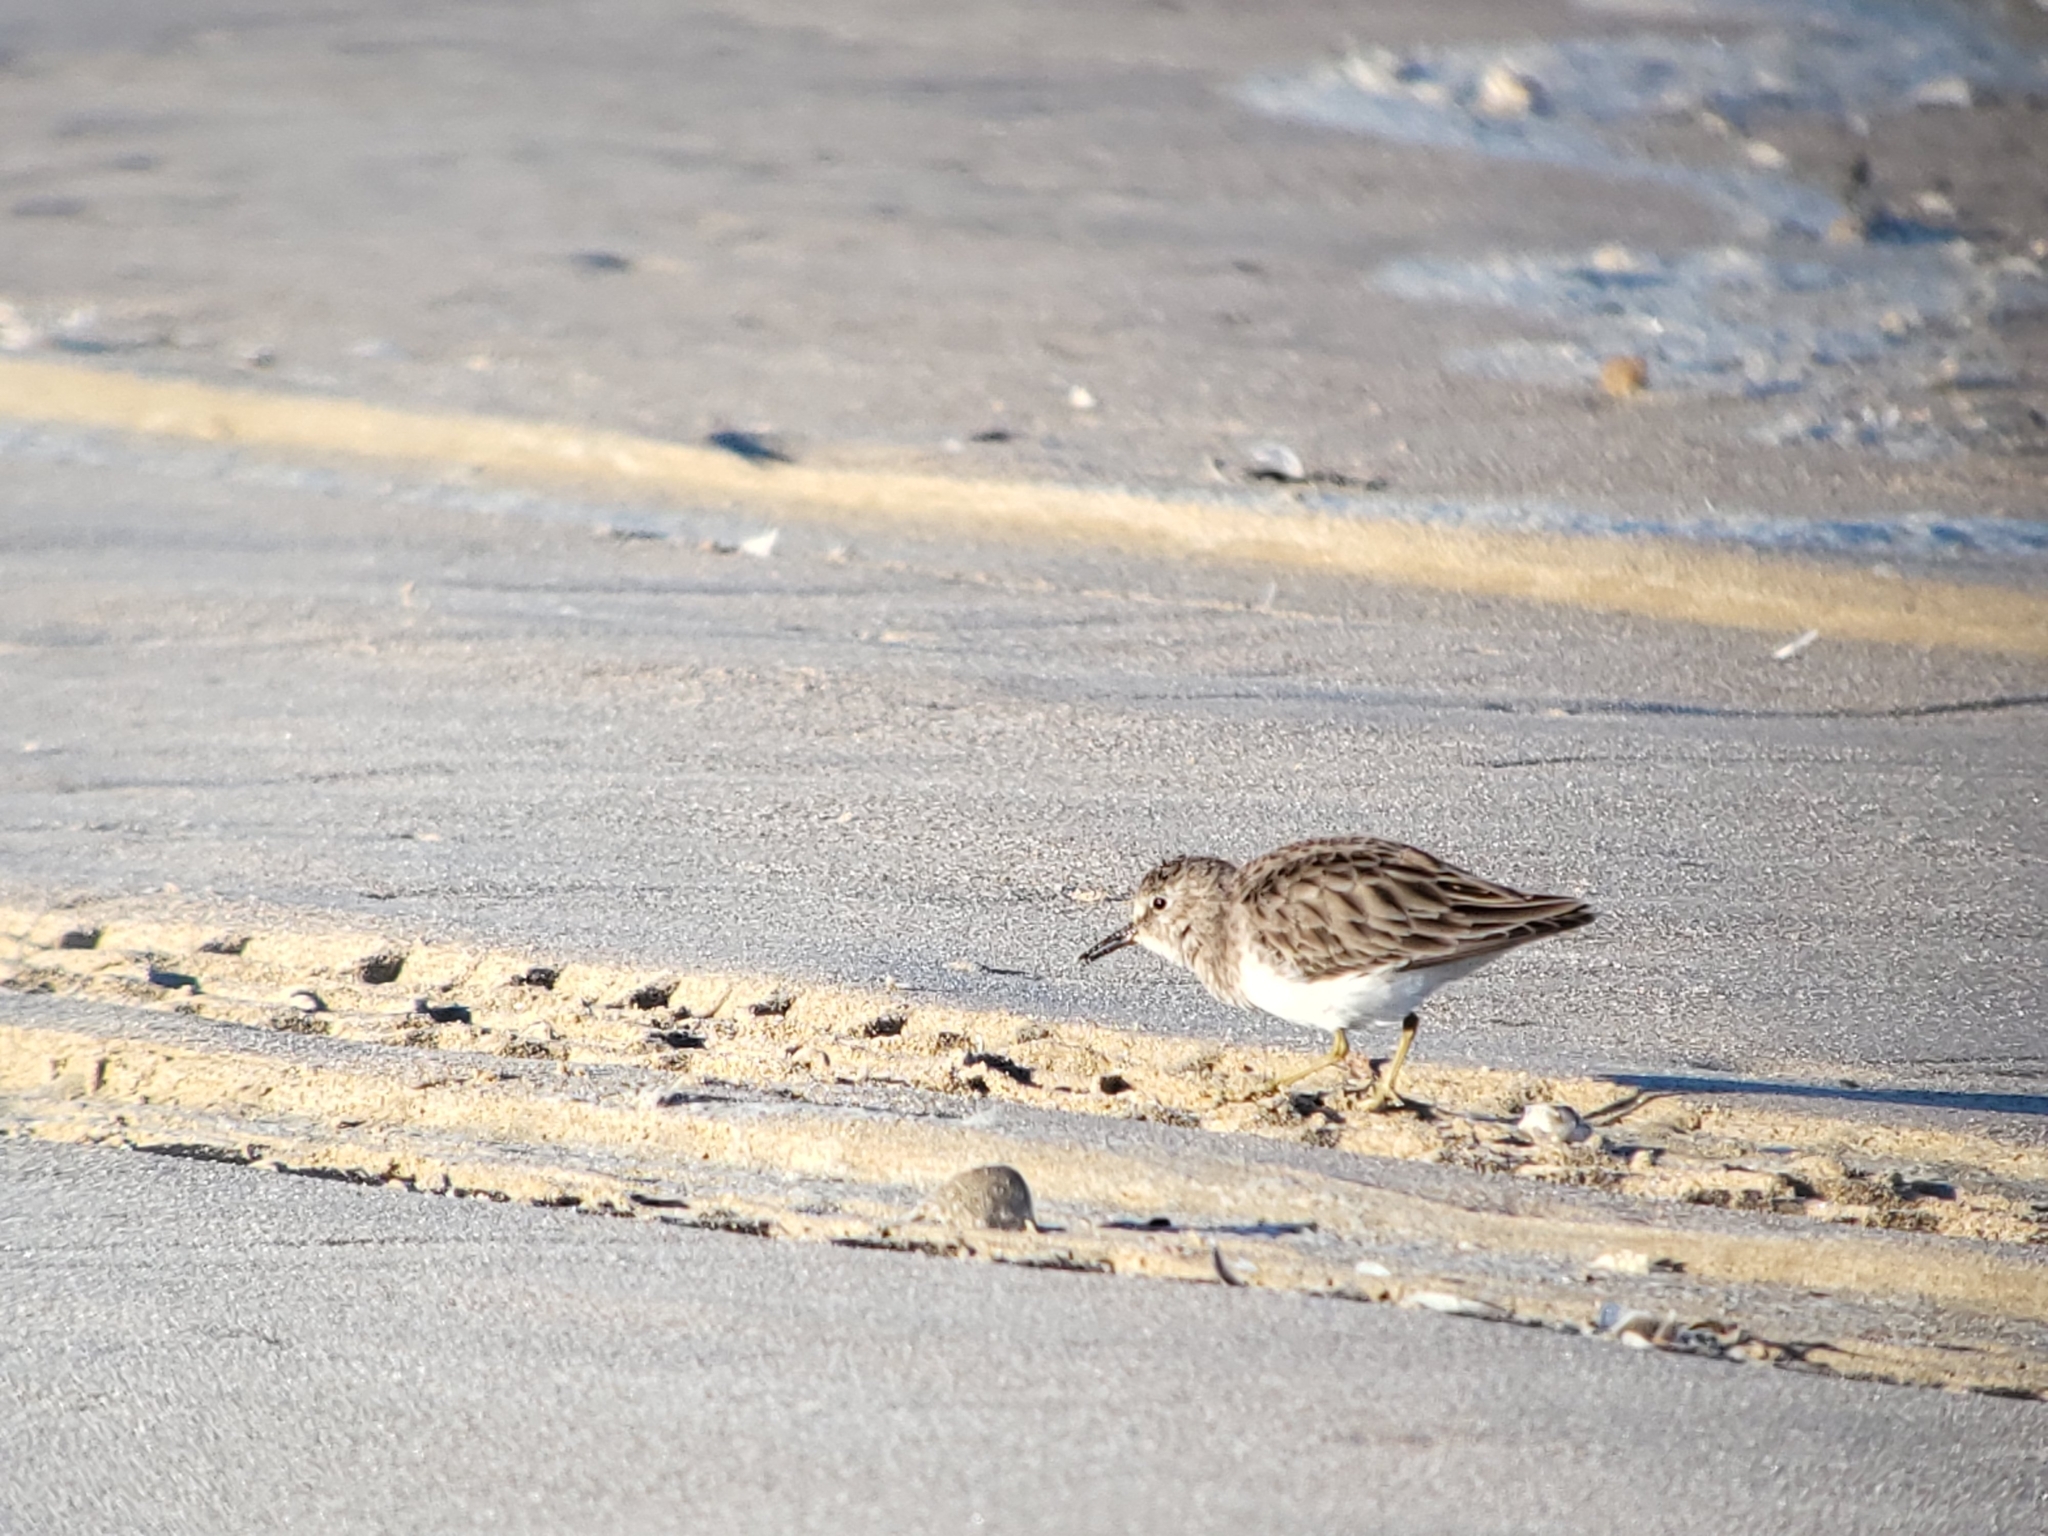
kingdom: Animalia
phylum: Chordata
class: Aves
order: Charadriiformes
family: Scolopacidae
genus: Calidris
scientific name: Calidris minutilla
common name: Least sandpiper
